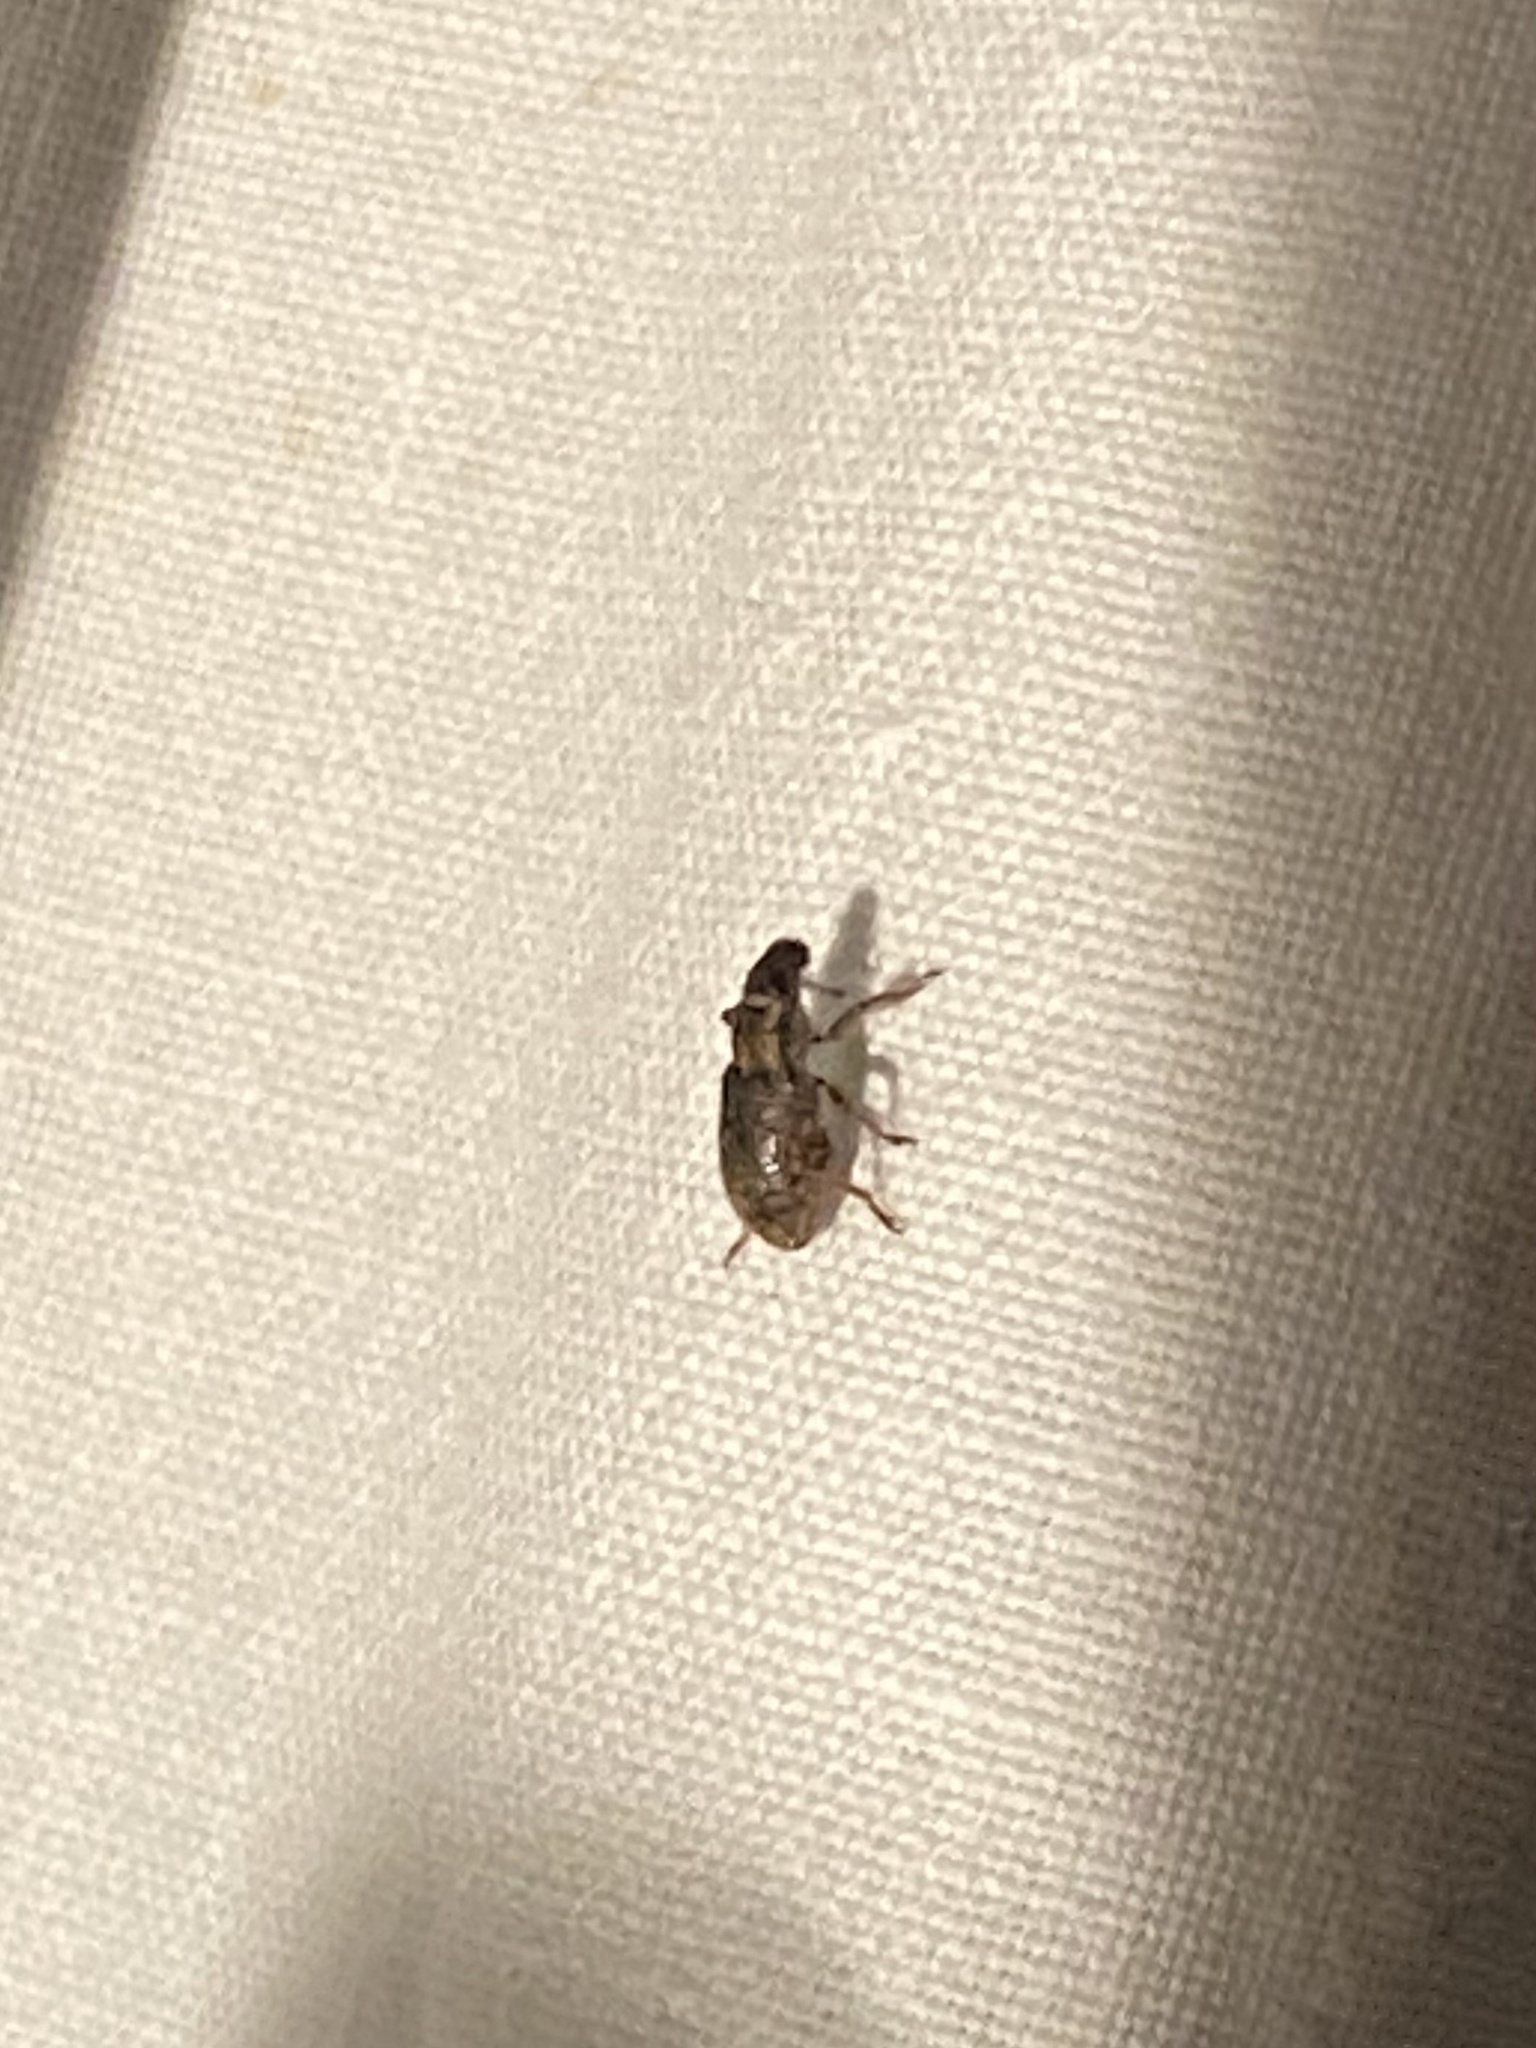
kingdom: Animalia
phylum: Arthropoda
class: Insecta
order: Coleoptera
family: Curculionidae
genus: Sitona
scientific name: Sitona hispidulus
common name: Clover weevil
